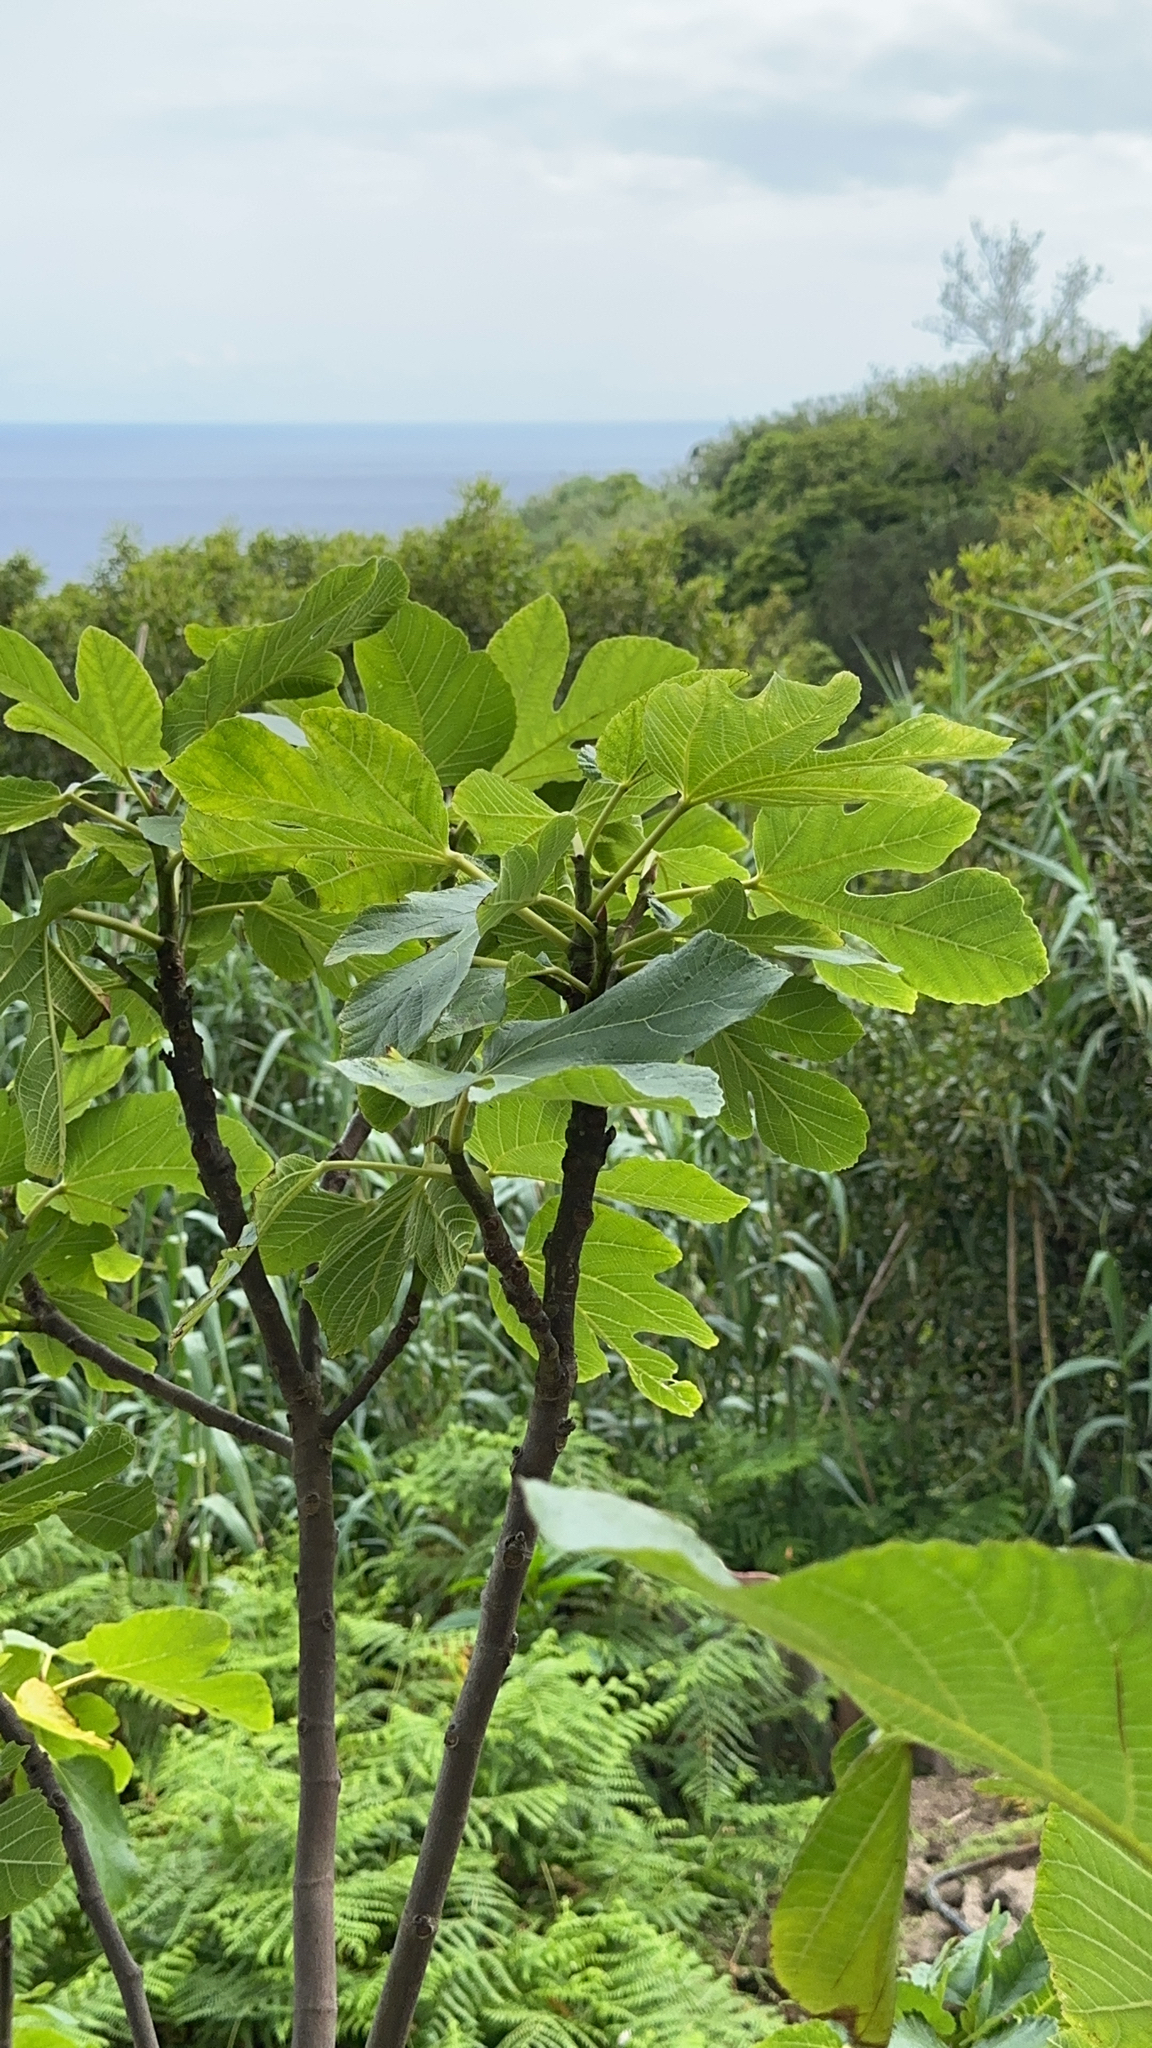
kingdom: Plantae
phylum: Tracheophyta
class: Magnoliopsida
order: Rosales
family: Moraceae
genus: Ficus
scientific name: Ficus carica
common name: Fig
